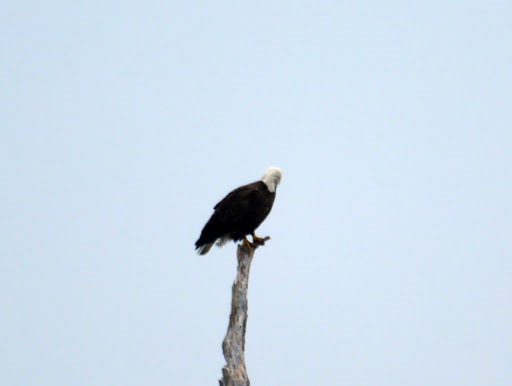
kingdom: Animalia
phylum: Chordata
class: Aves
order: Accipitriformes
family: Accipitridae
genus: Haliaeetus
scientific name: Haliaeetus leucocephalus
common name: Bald eagle
